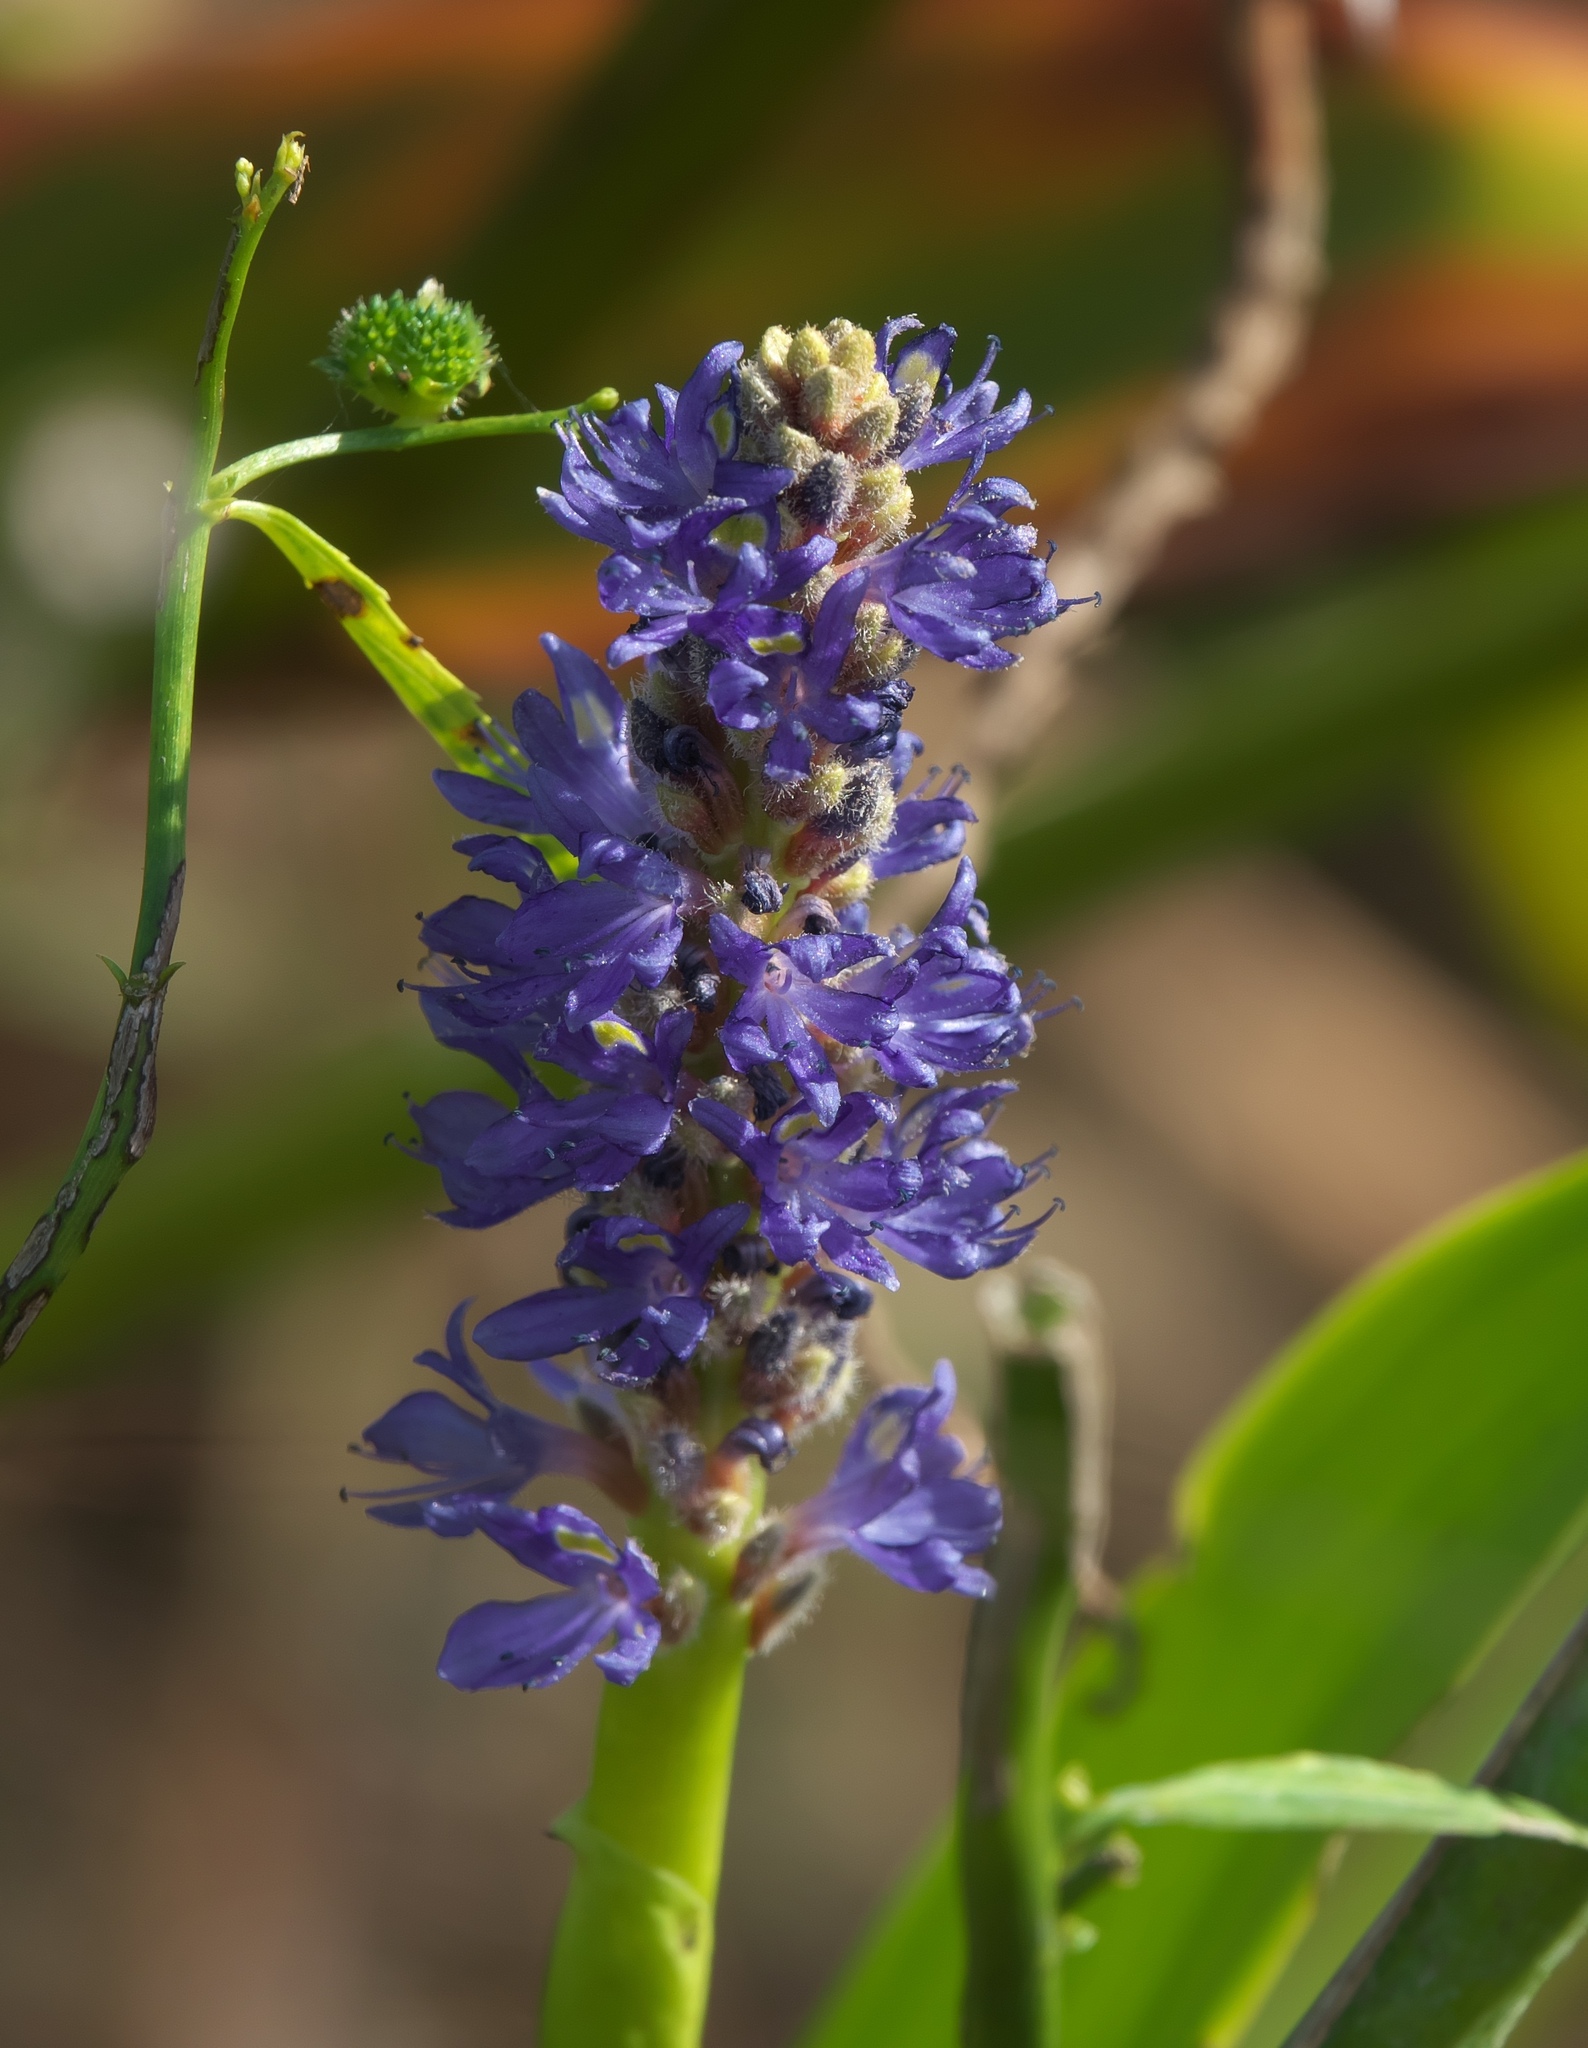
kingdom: Plantae
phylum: Tracheophyta
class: Liliopsida
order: Commelinales
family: Pontederiaceae
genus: Pontederia
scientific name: Pontederia cordata
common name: Pickerelweed
